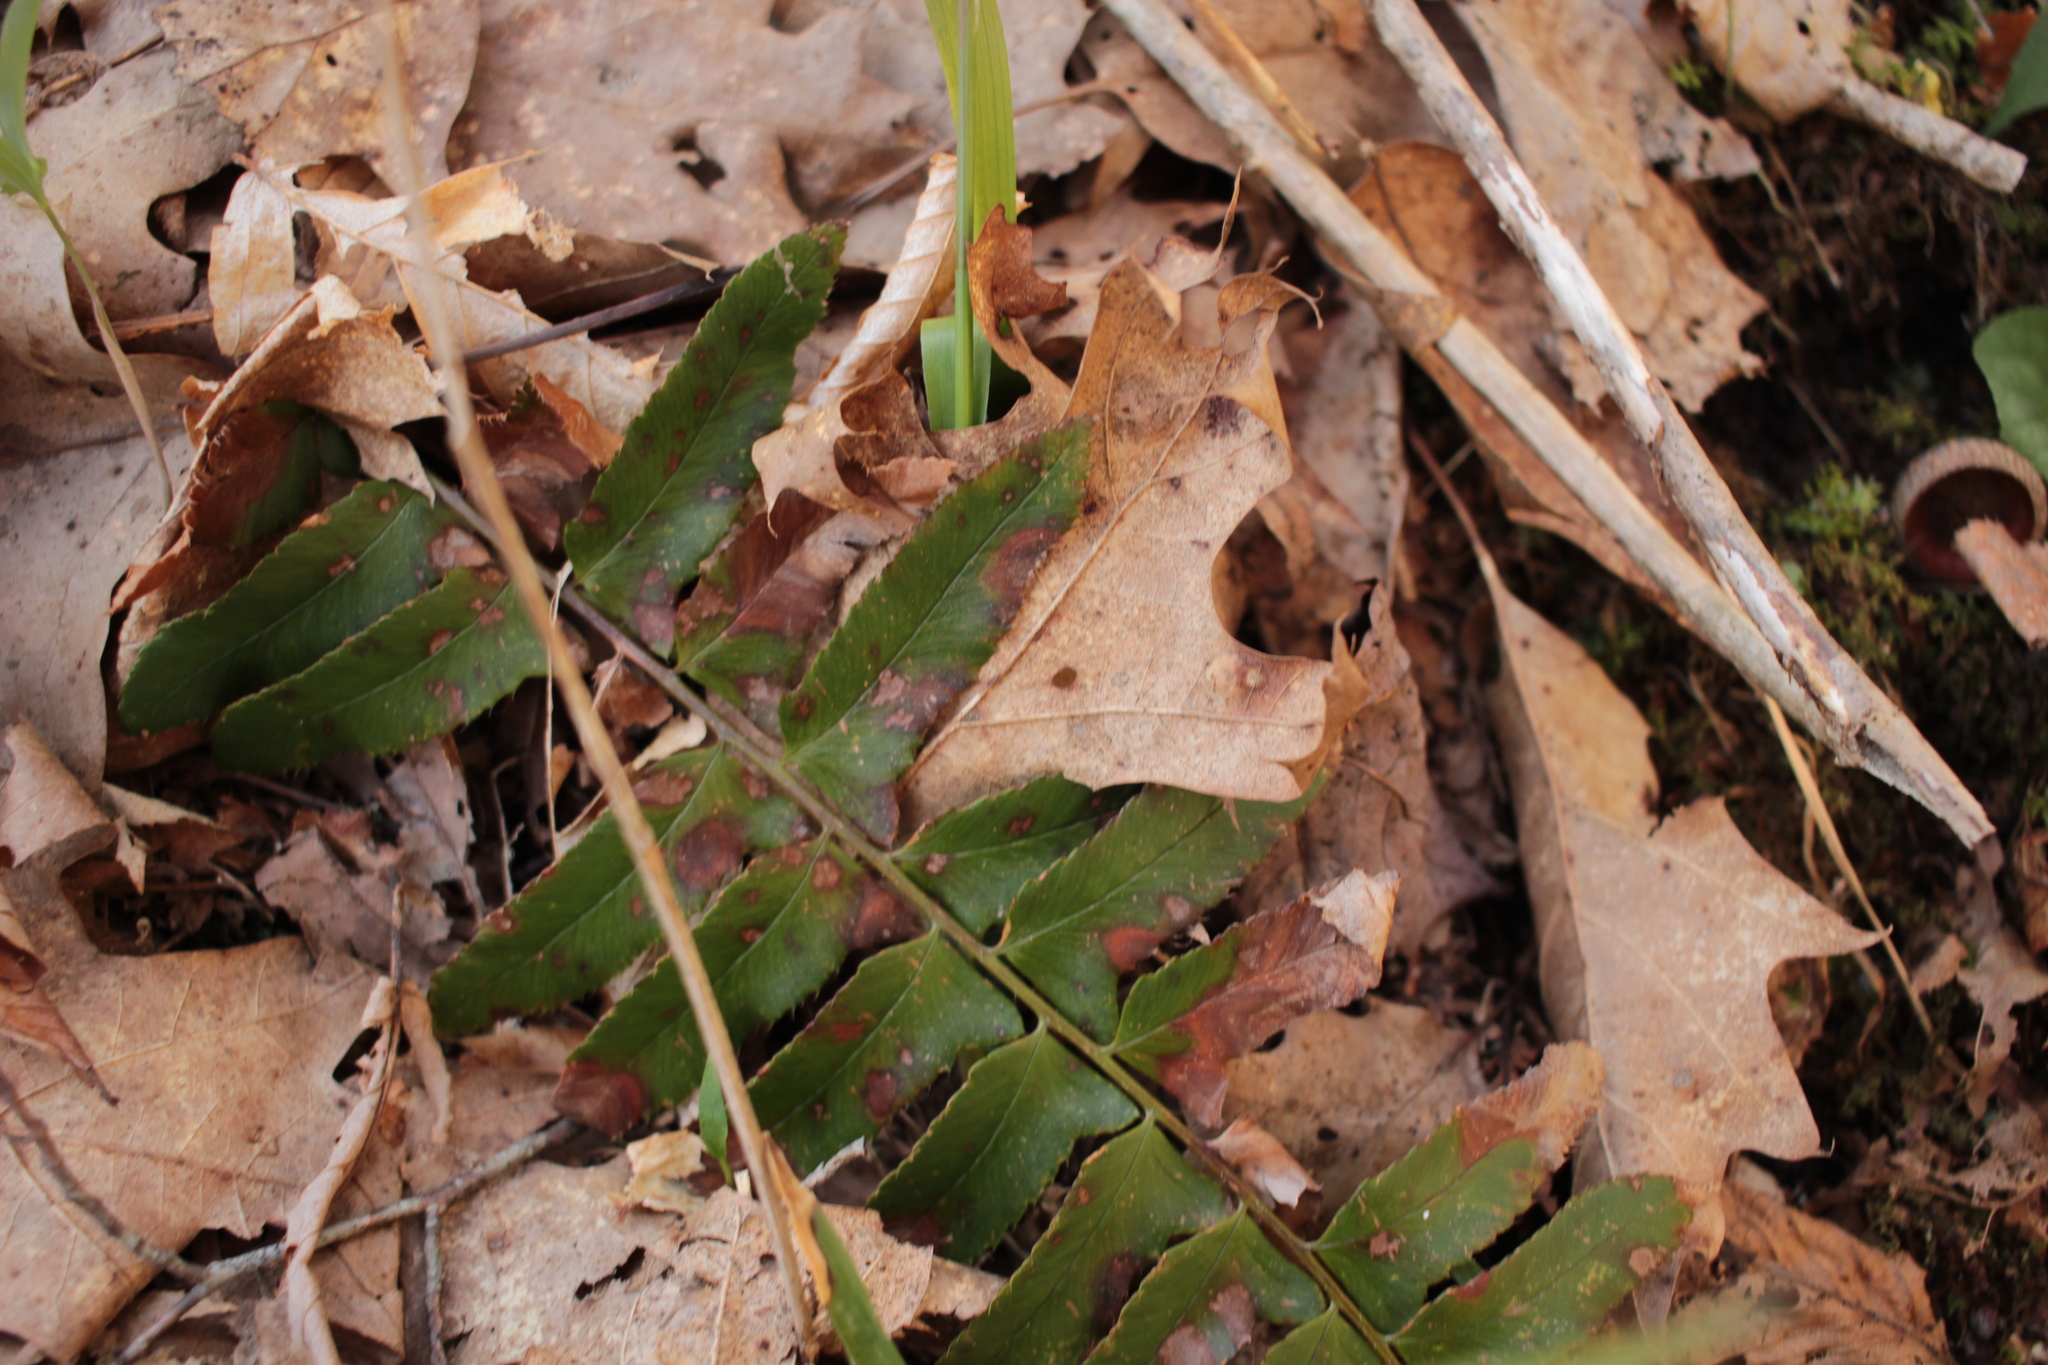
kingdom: Plantae
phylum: Tracheophyta
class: Polypodiopsida
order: Polypodiales
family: Dryopteridaceae
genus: Polystichum
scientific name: Polystichum acrostichoides
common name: Christmas fern
